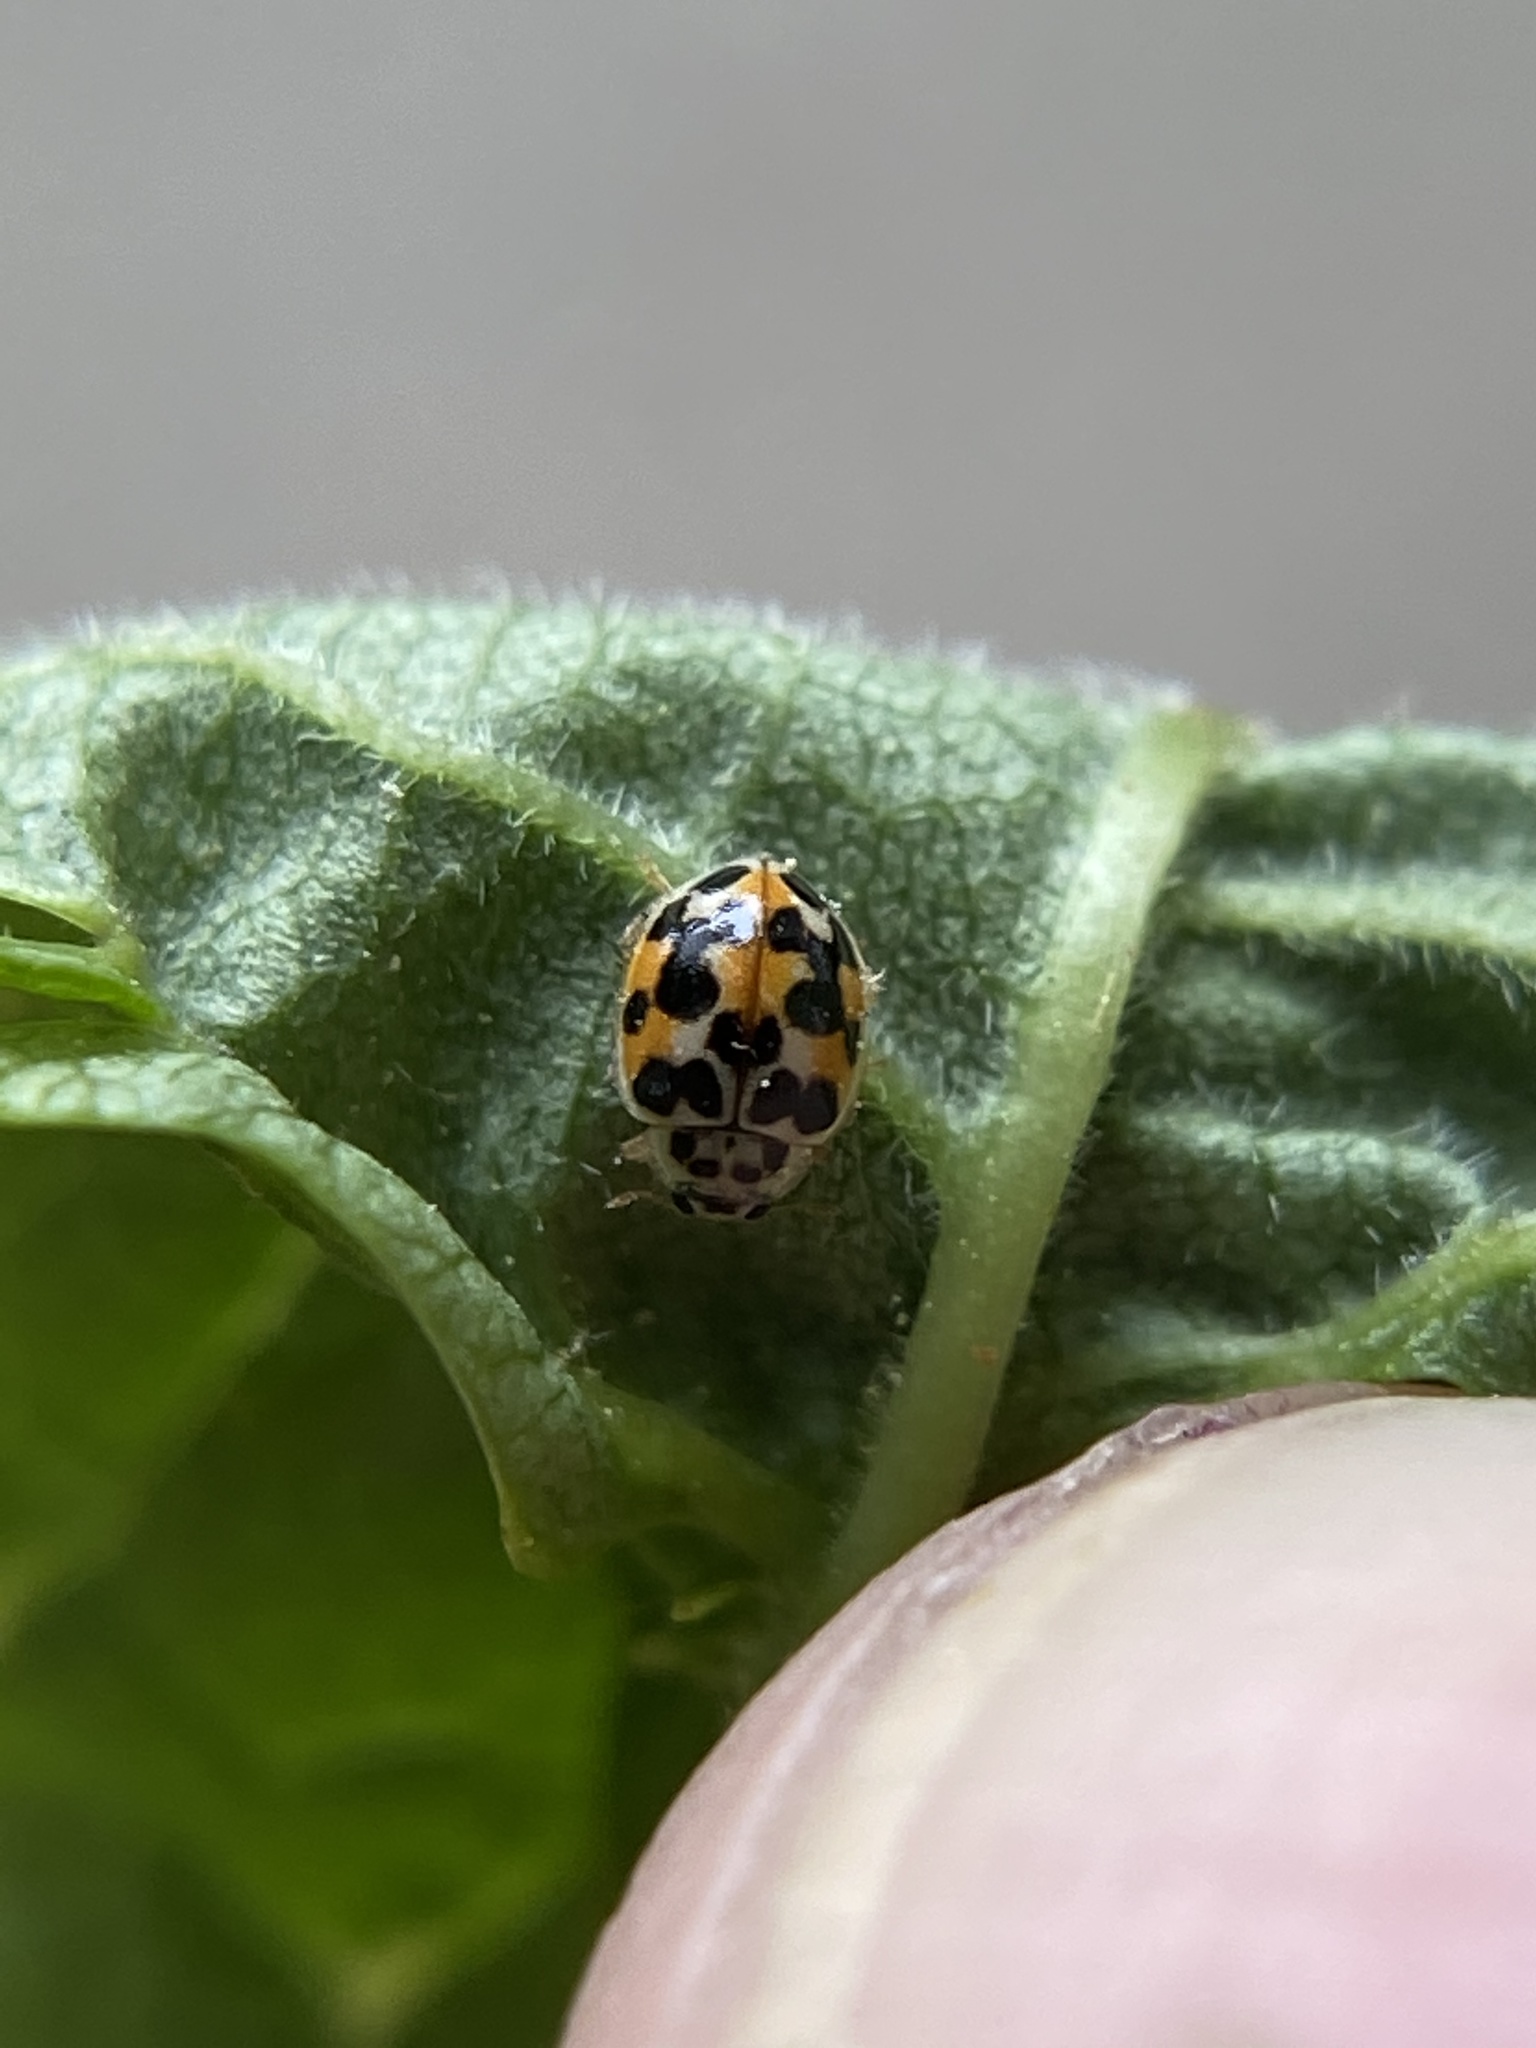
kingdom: Animalia
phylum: Arthropoda
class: Insecta
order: Coleoptera
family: Coccinellidae
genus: Psyllobora
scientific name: Psyllobora vigintimaculata
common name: Ladybird beetle
